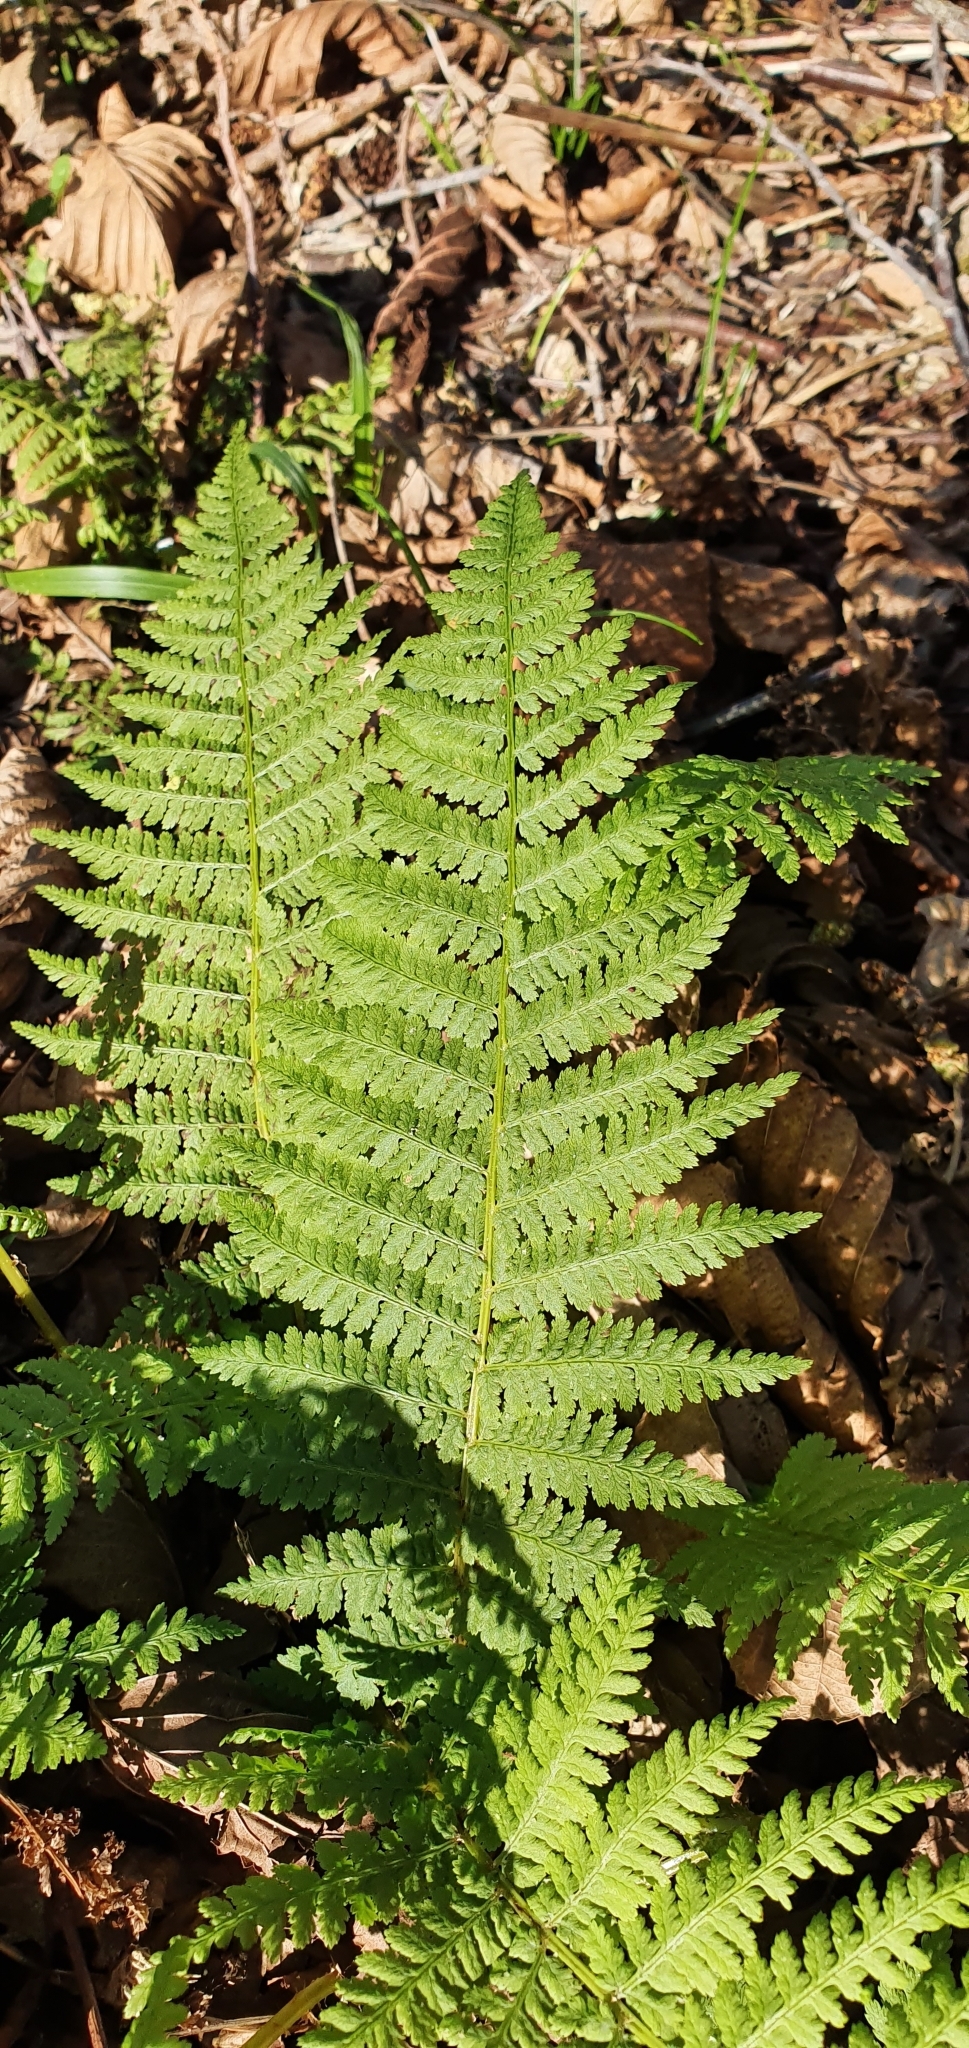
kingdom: Plantae
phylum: Tracheophyta
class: Polypodiopsida
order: Polypodiales
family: Athyriaceae
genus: Athyrium
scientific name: Athyrium filix-femina
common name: Lady fern
